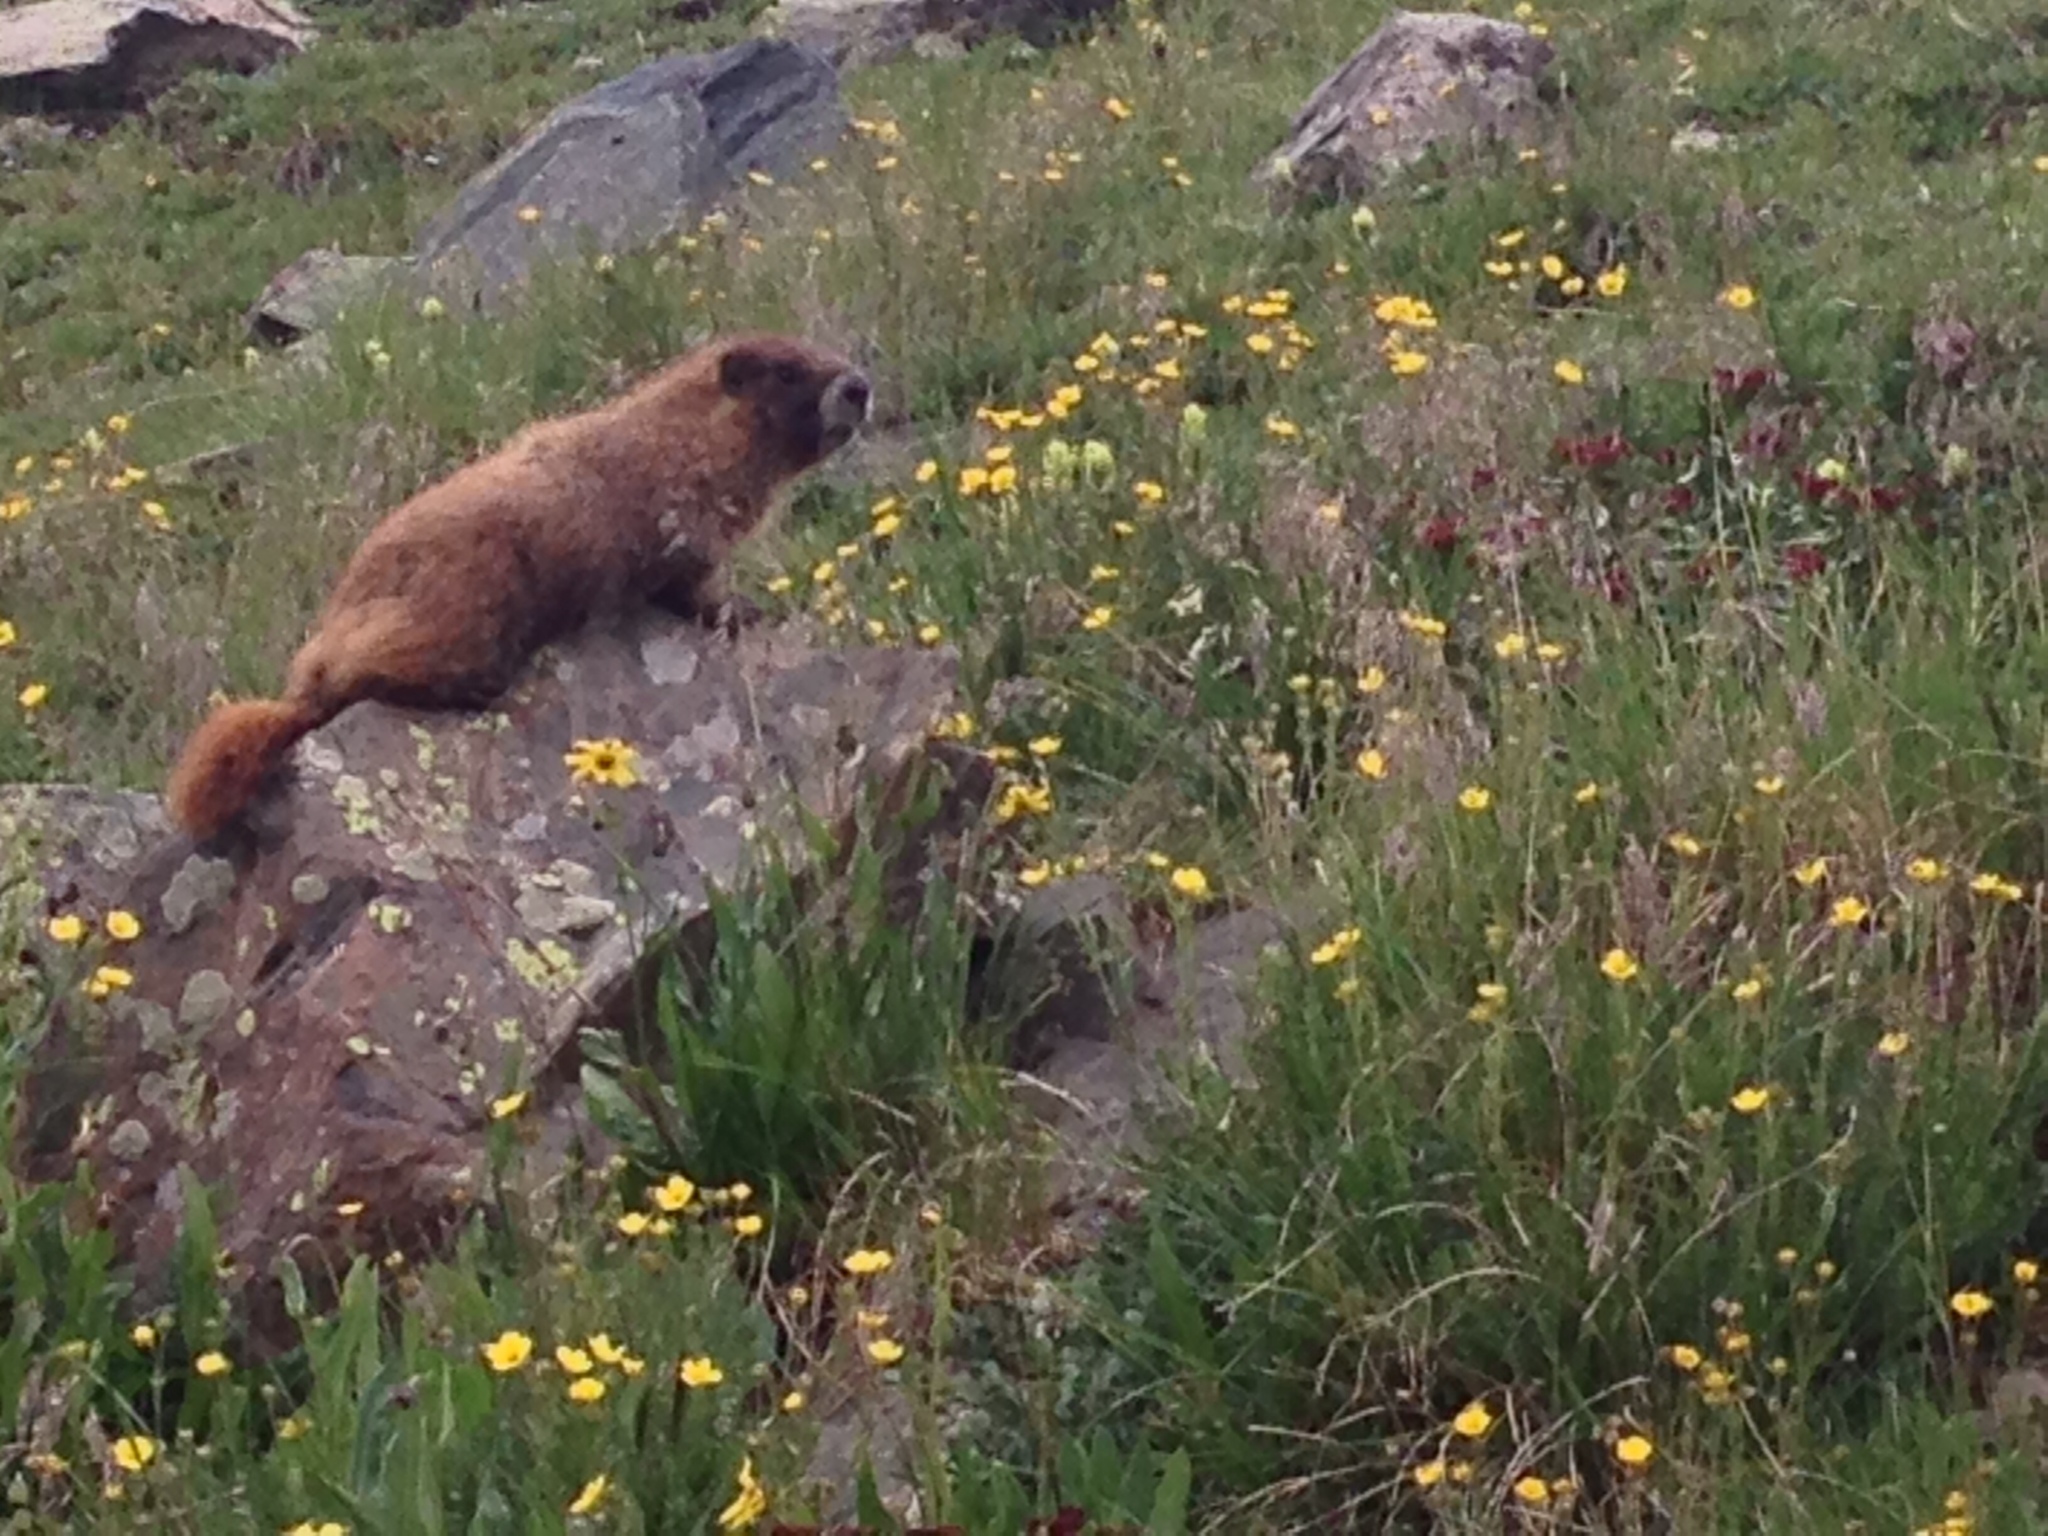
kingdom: Animalia
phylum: Chordata
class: Mammalia
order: Rodentia
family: Sciuridae
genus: Marmota
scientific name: Marmota flaviventris
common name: Yellow-bellied marmot
